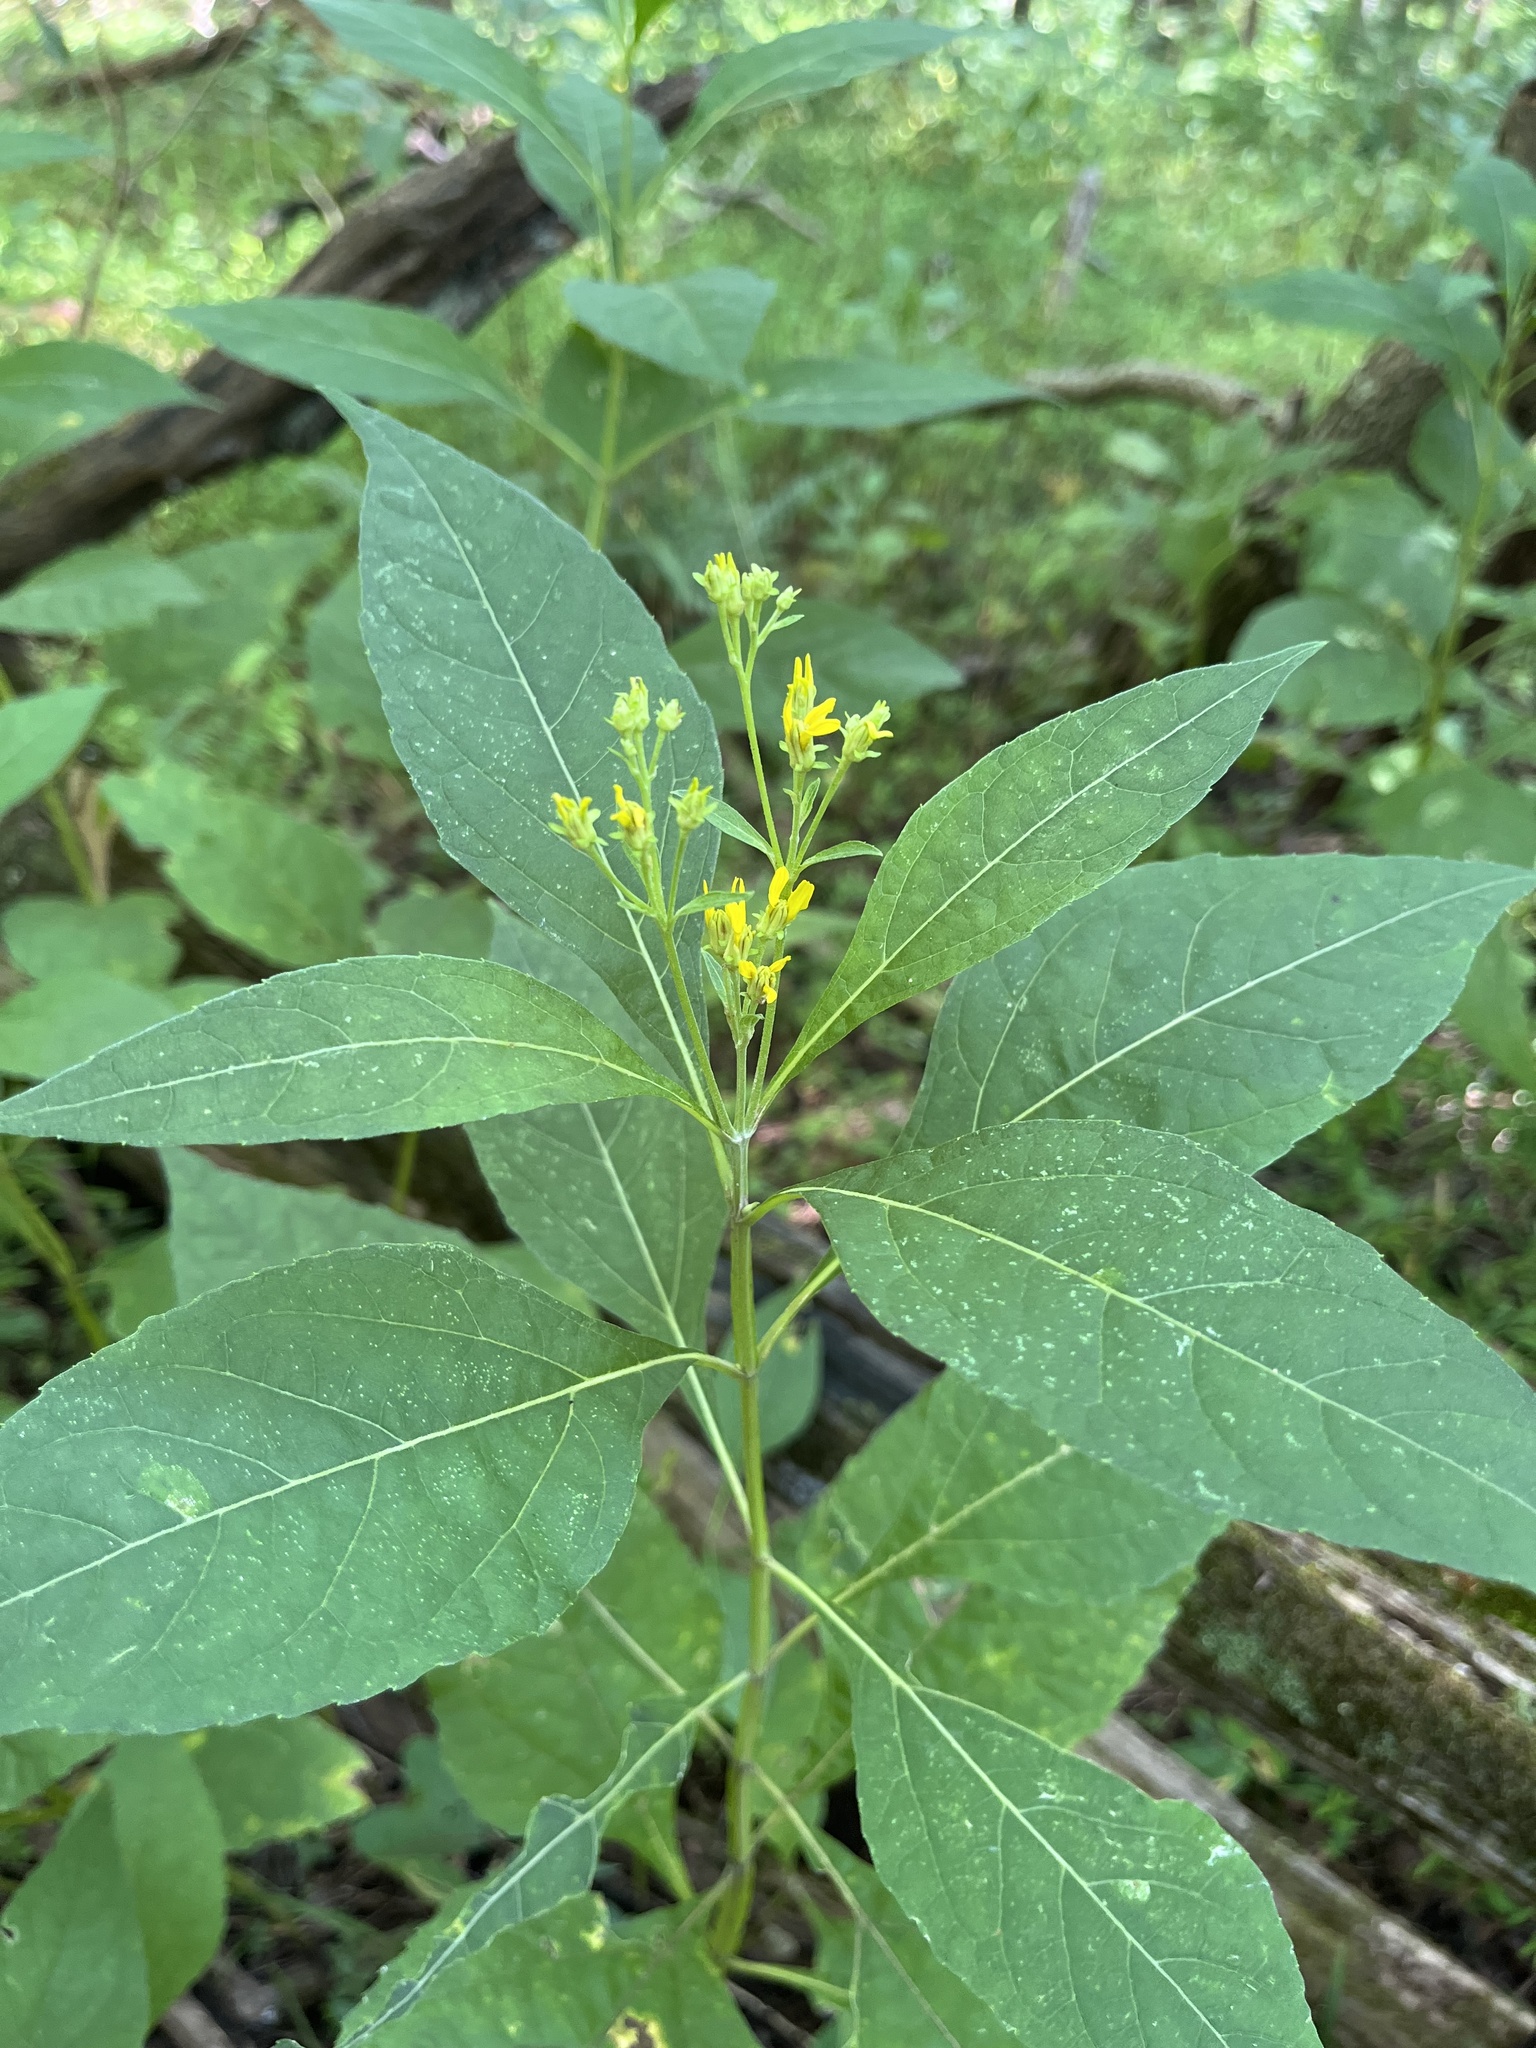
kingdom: Plantae
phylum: Tracheophyta
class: Magnoliopsida
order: Asterales
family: Asteraceae
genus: Verbesina
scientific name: Verbesina occidentalis
